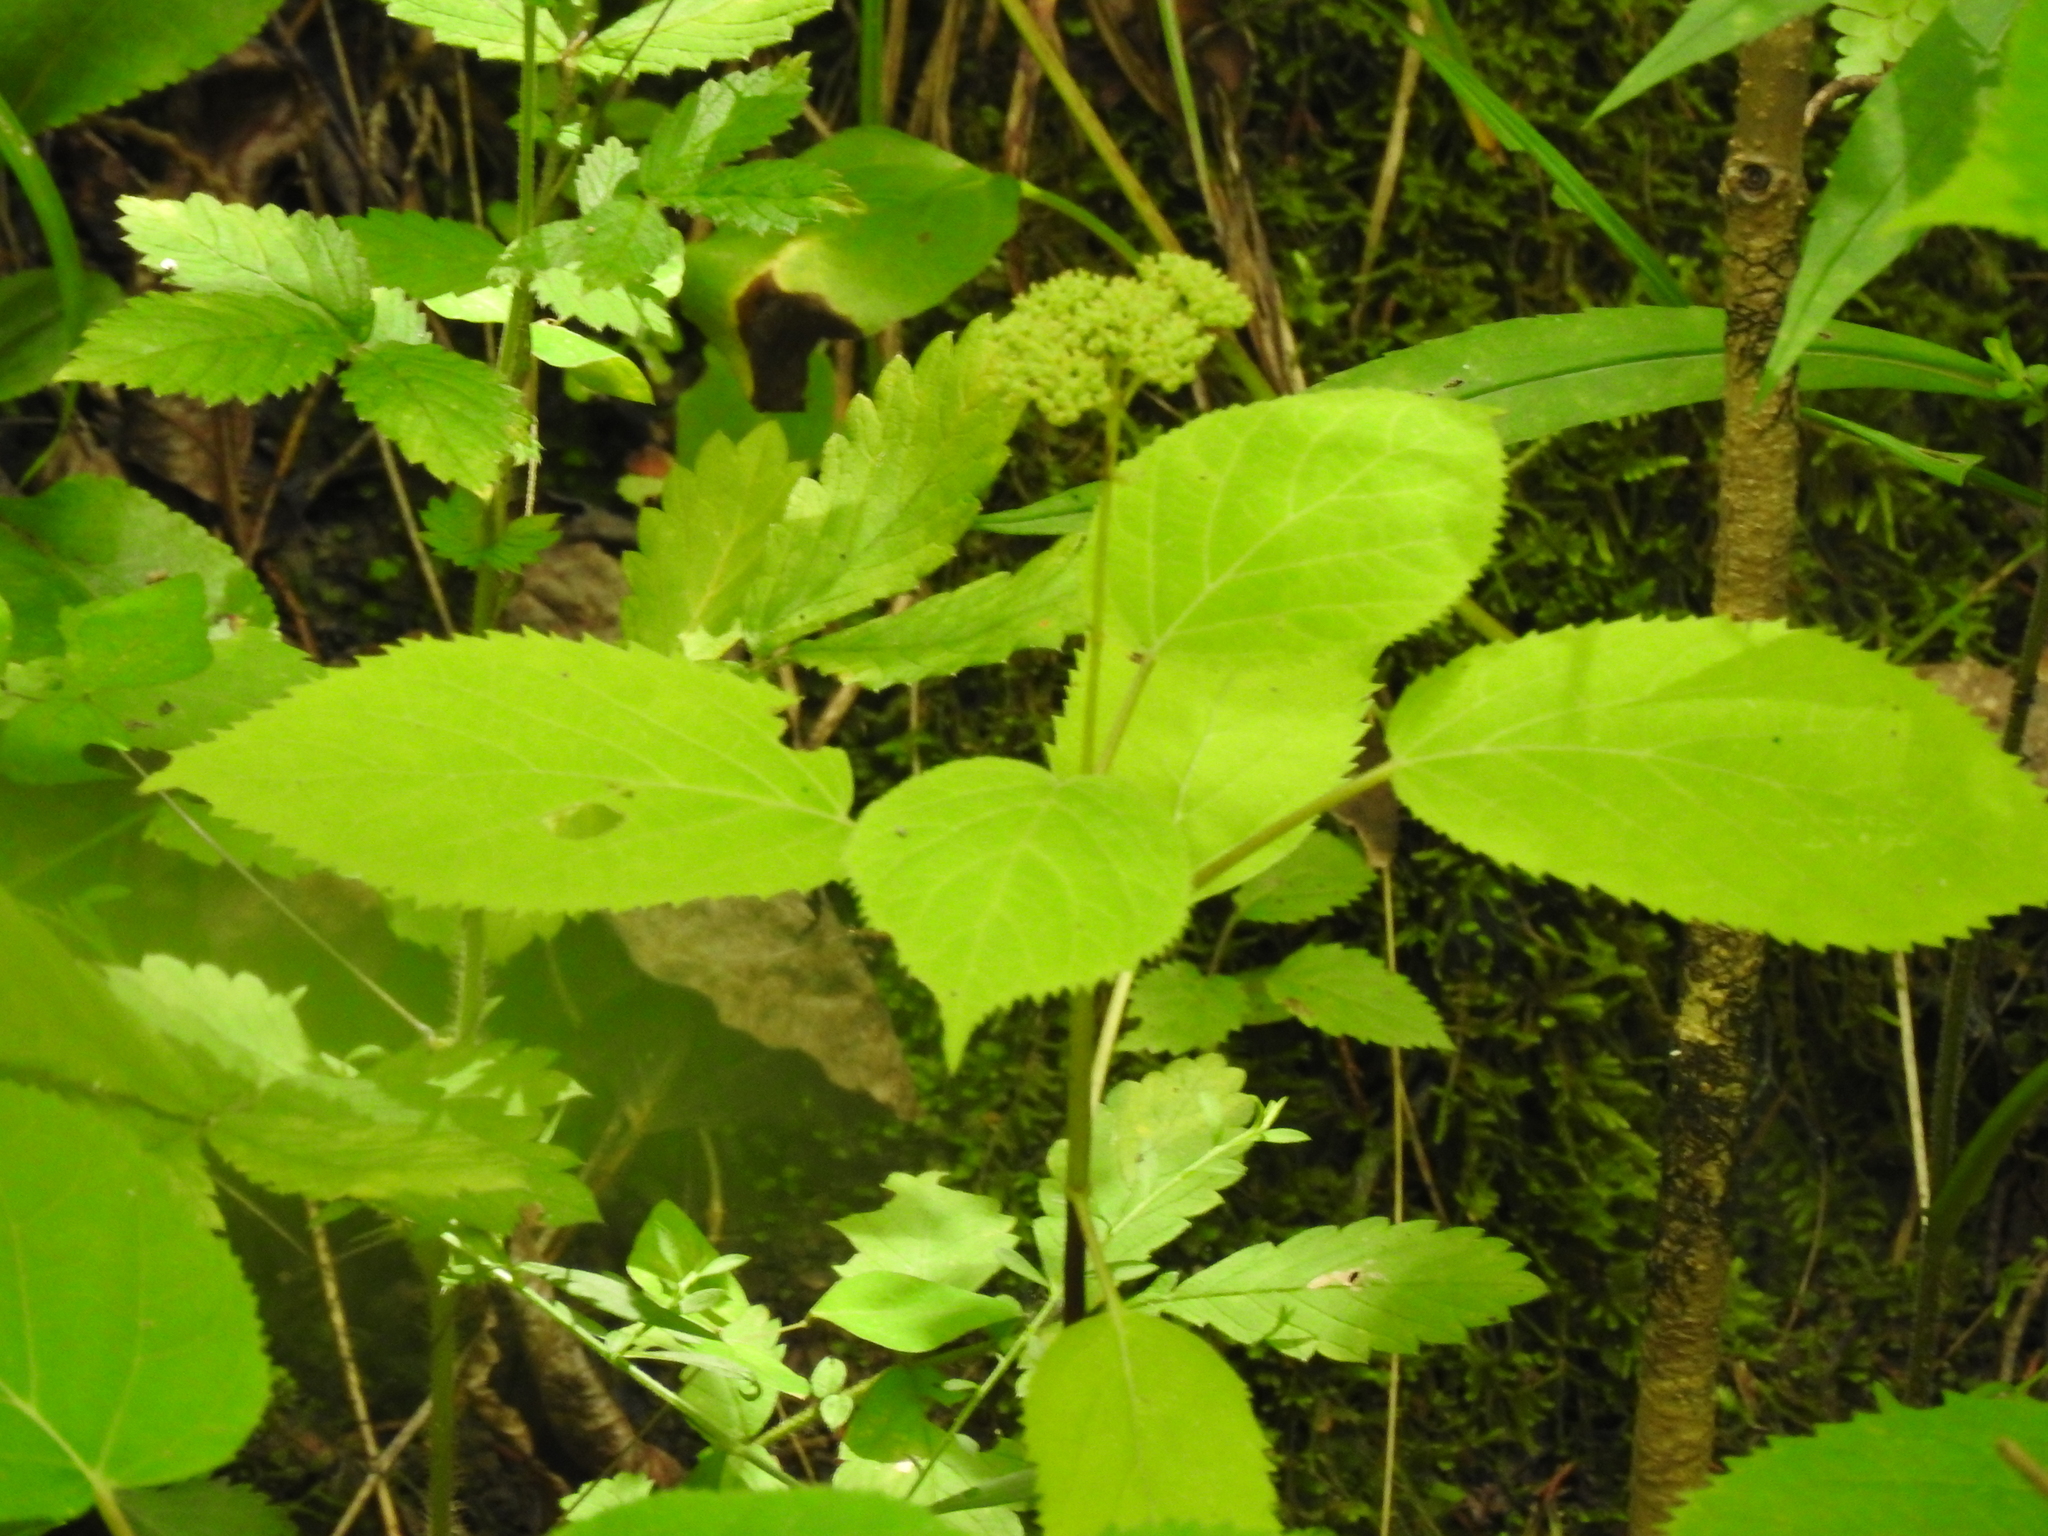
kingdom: Plantae
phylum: Tracheophyta
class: Magnoliopsida
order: Cornales
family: Hydrangeaceae
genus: Hydrangea
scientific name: Hydrangea arborescens
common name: Sevenbark
